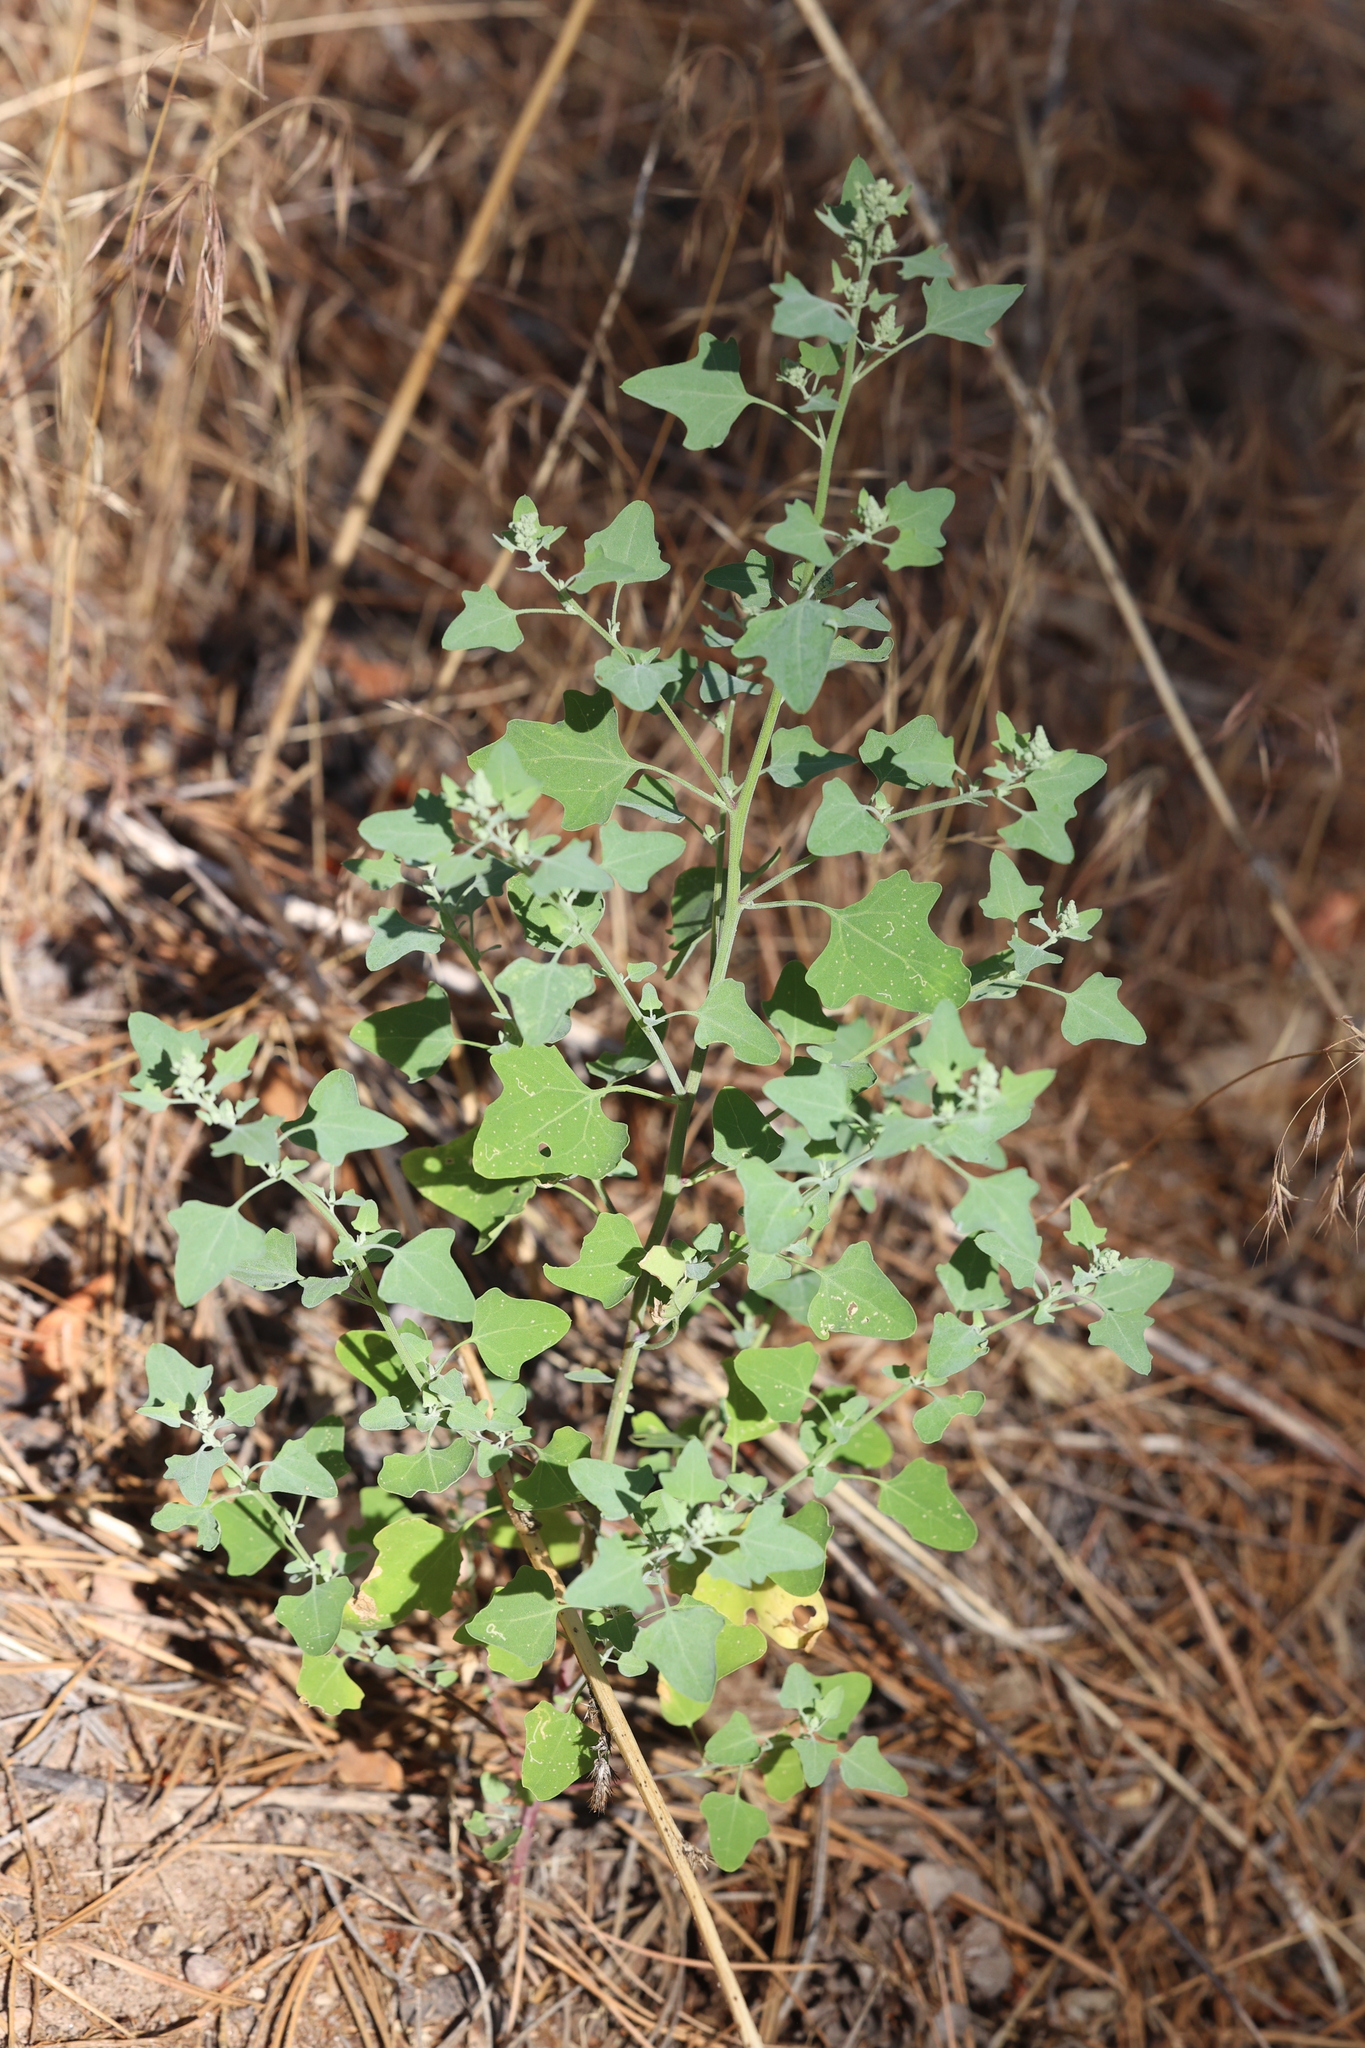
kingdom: Plantae
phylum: Tracheophyta
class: Magnoliopsida
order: Caryophyllales
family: Amaranthaceae
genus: Chenopodium
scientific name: Chenopodium fremontii
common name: Fremont's goosefoot
